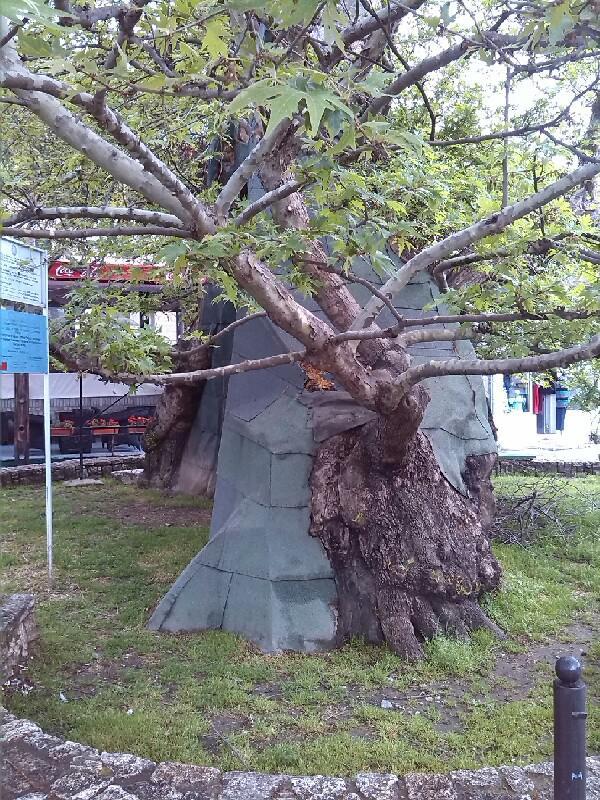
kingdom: Plantae
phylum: Tracheophyta
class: Magnoliopsida
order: Proteales
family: Platanaceae
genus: Platanus
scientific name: Platanus orientalis
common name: Oriental plane
